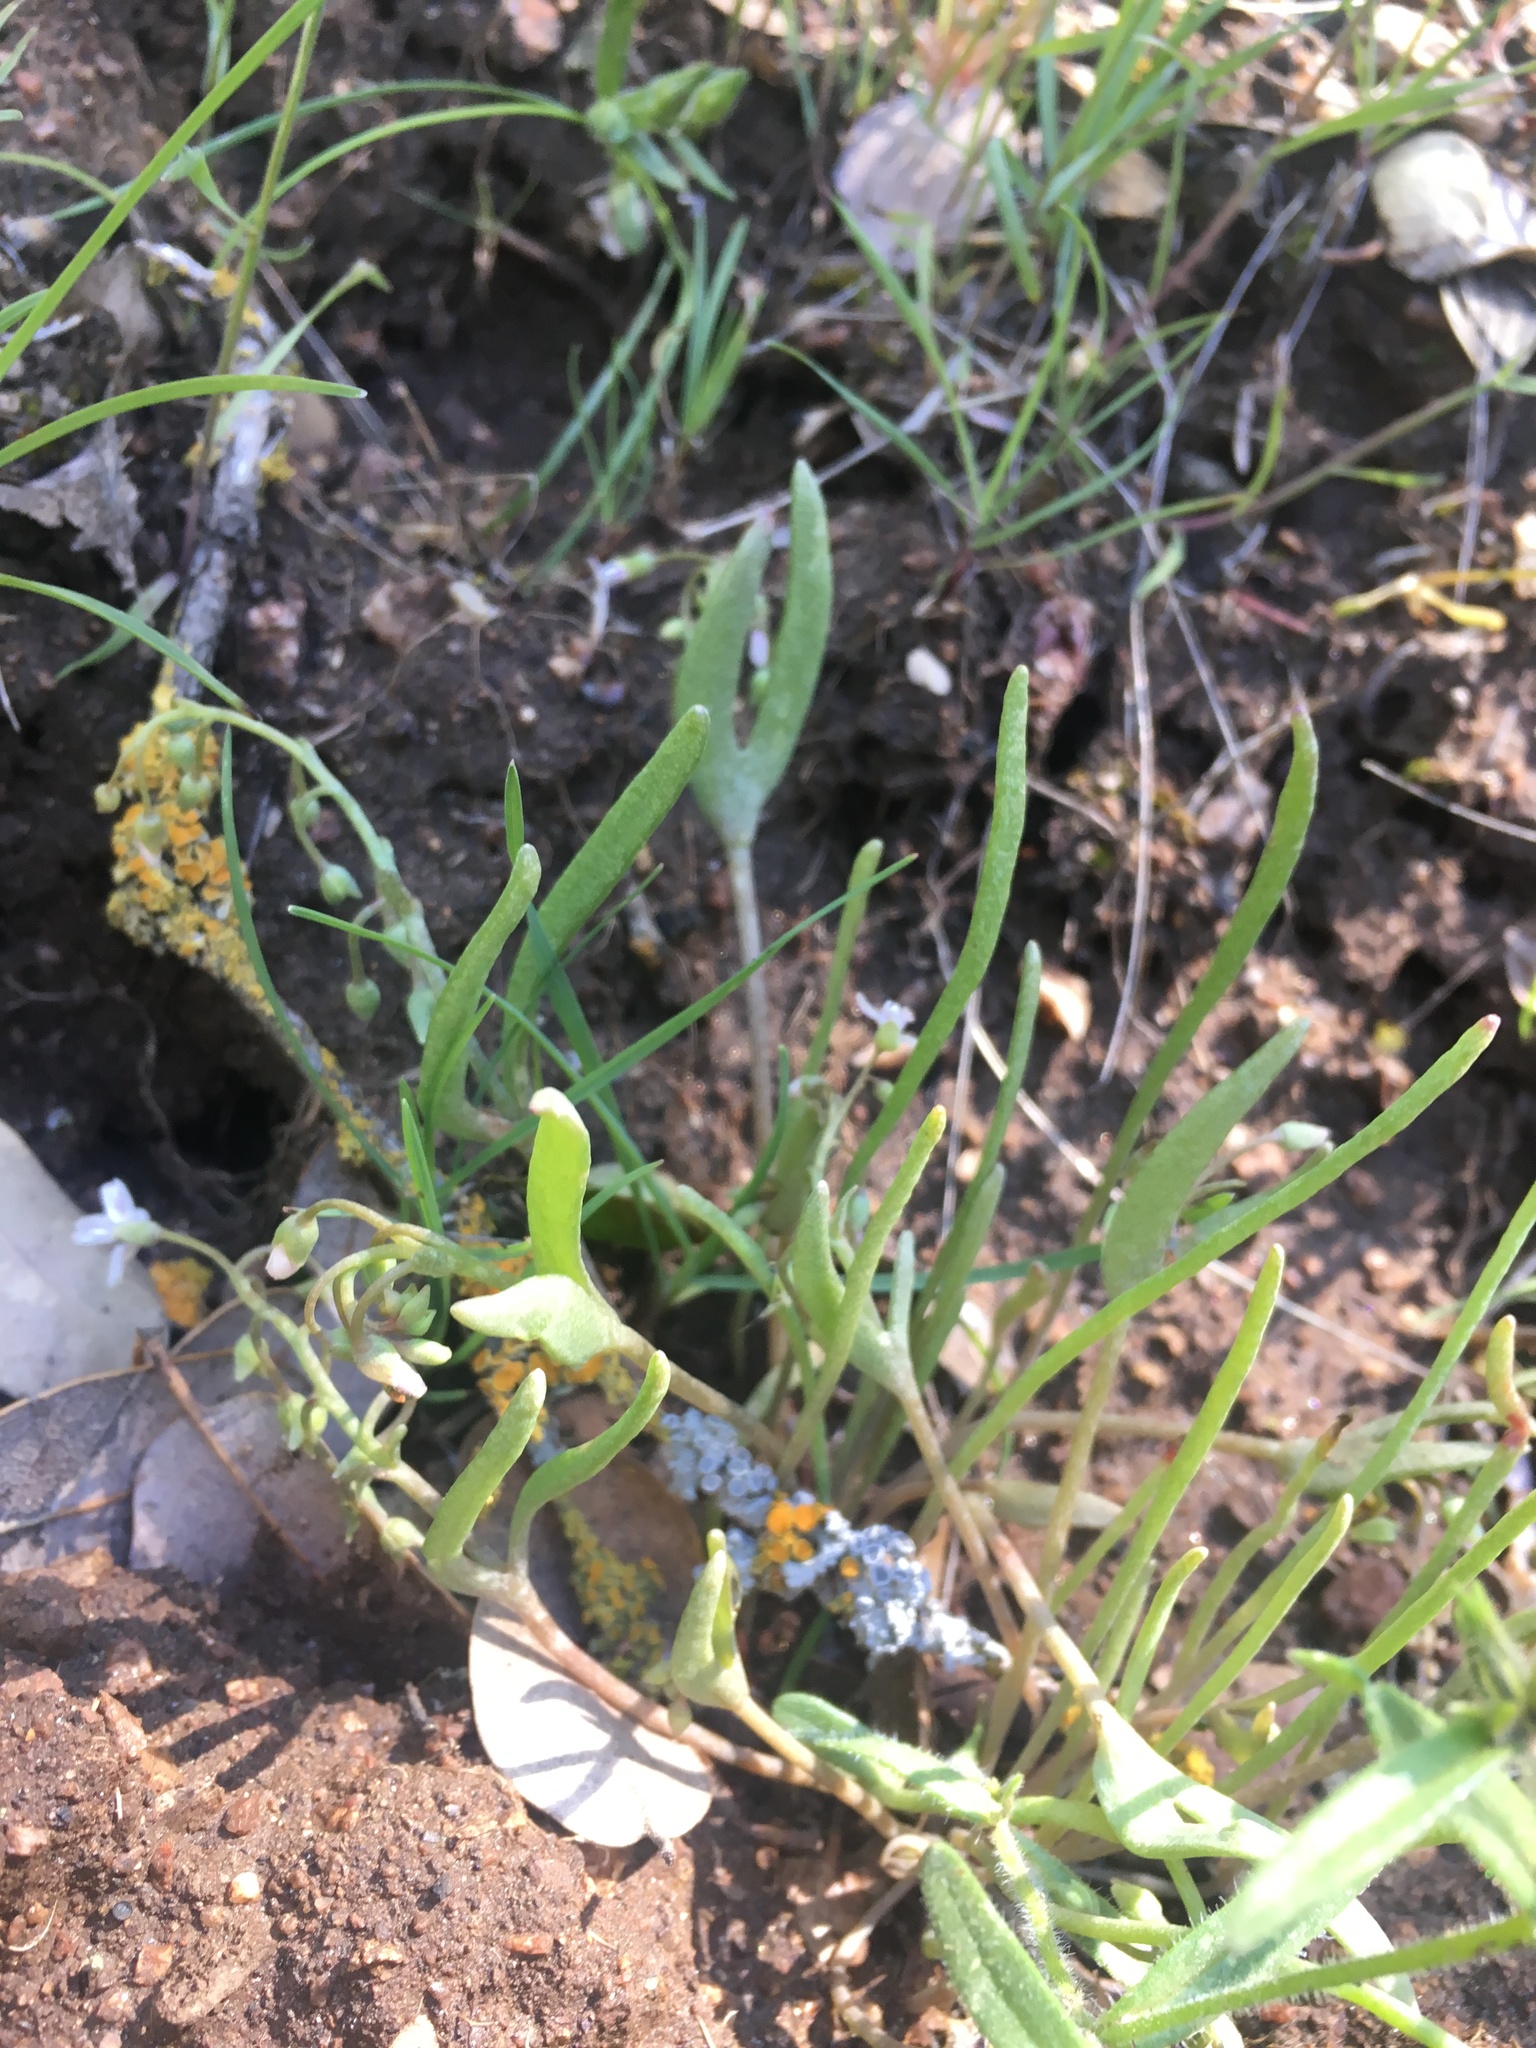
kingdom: Plantae
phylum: Tracheophyta
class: Magnoliopsida
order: Caryophyllales
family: Montiaceae
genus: Claytonia
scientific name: Claytonia parviflora
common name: Indian-lettuce
